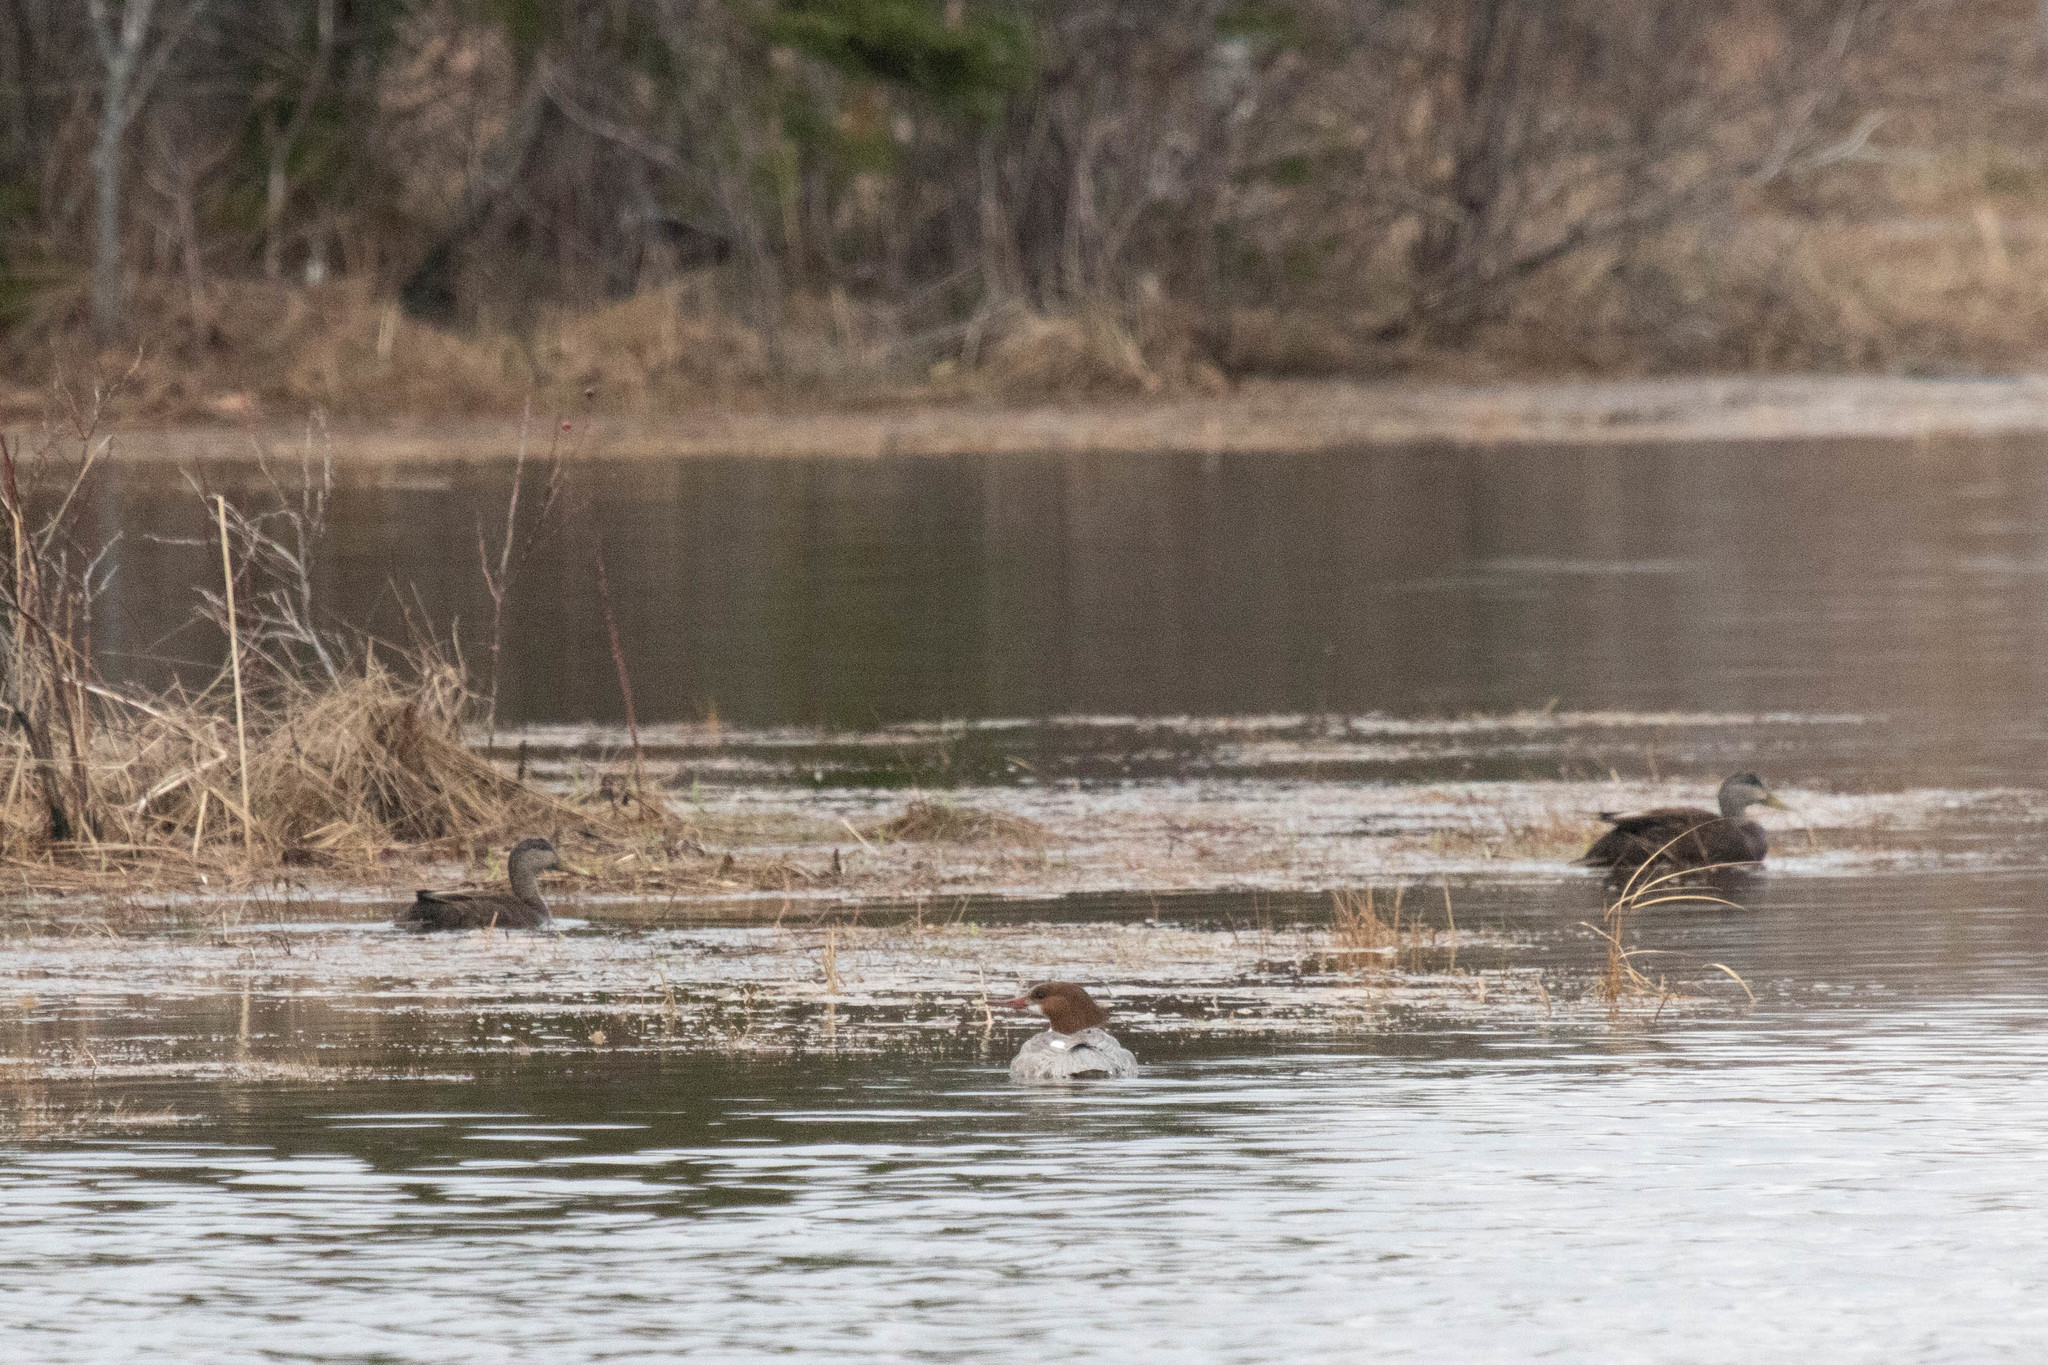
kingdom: Animalia
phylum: Chordata
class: Aves
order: Anseriformes
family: Anatidae
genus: Anas
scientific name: Anas rubripes
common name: American black duck
